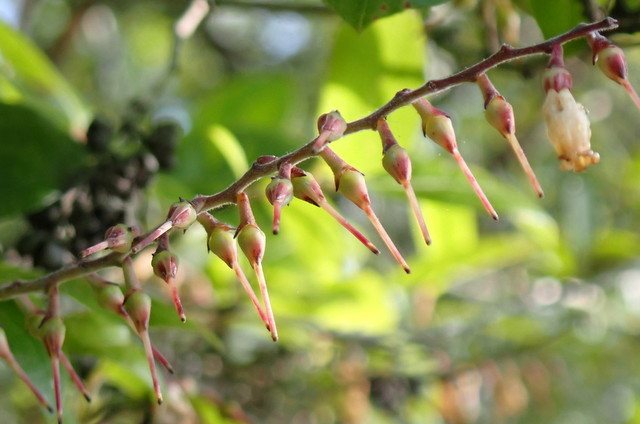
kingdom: Plantae
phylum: Tracheophyta
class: Magnoliopsida
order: Ericales
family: Ericaceae
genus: Eubotrys
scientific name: Eubotrys racemosa
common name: Fetterbush
